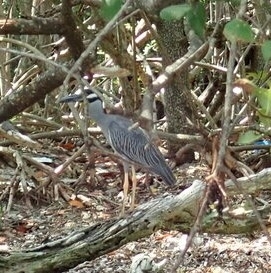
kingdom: Animalia
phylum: Chordata
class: Aves
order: Pelecaniformes
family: Ardeidae
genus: Nyctanassa
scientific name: Nyctanassa violacea
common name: Yellow-crowned night heron
